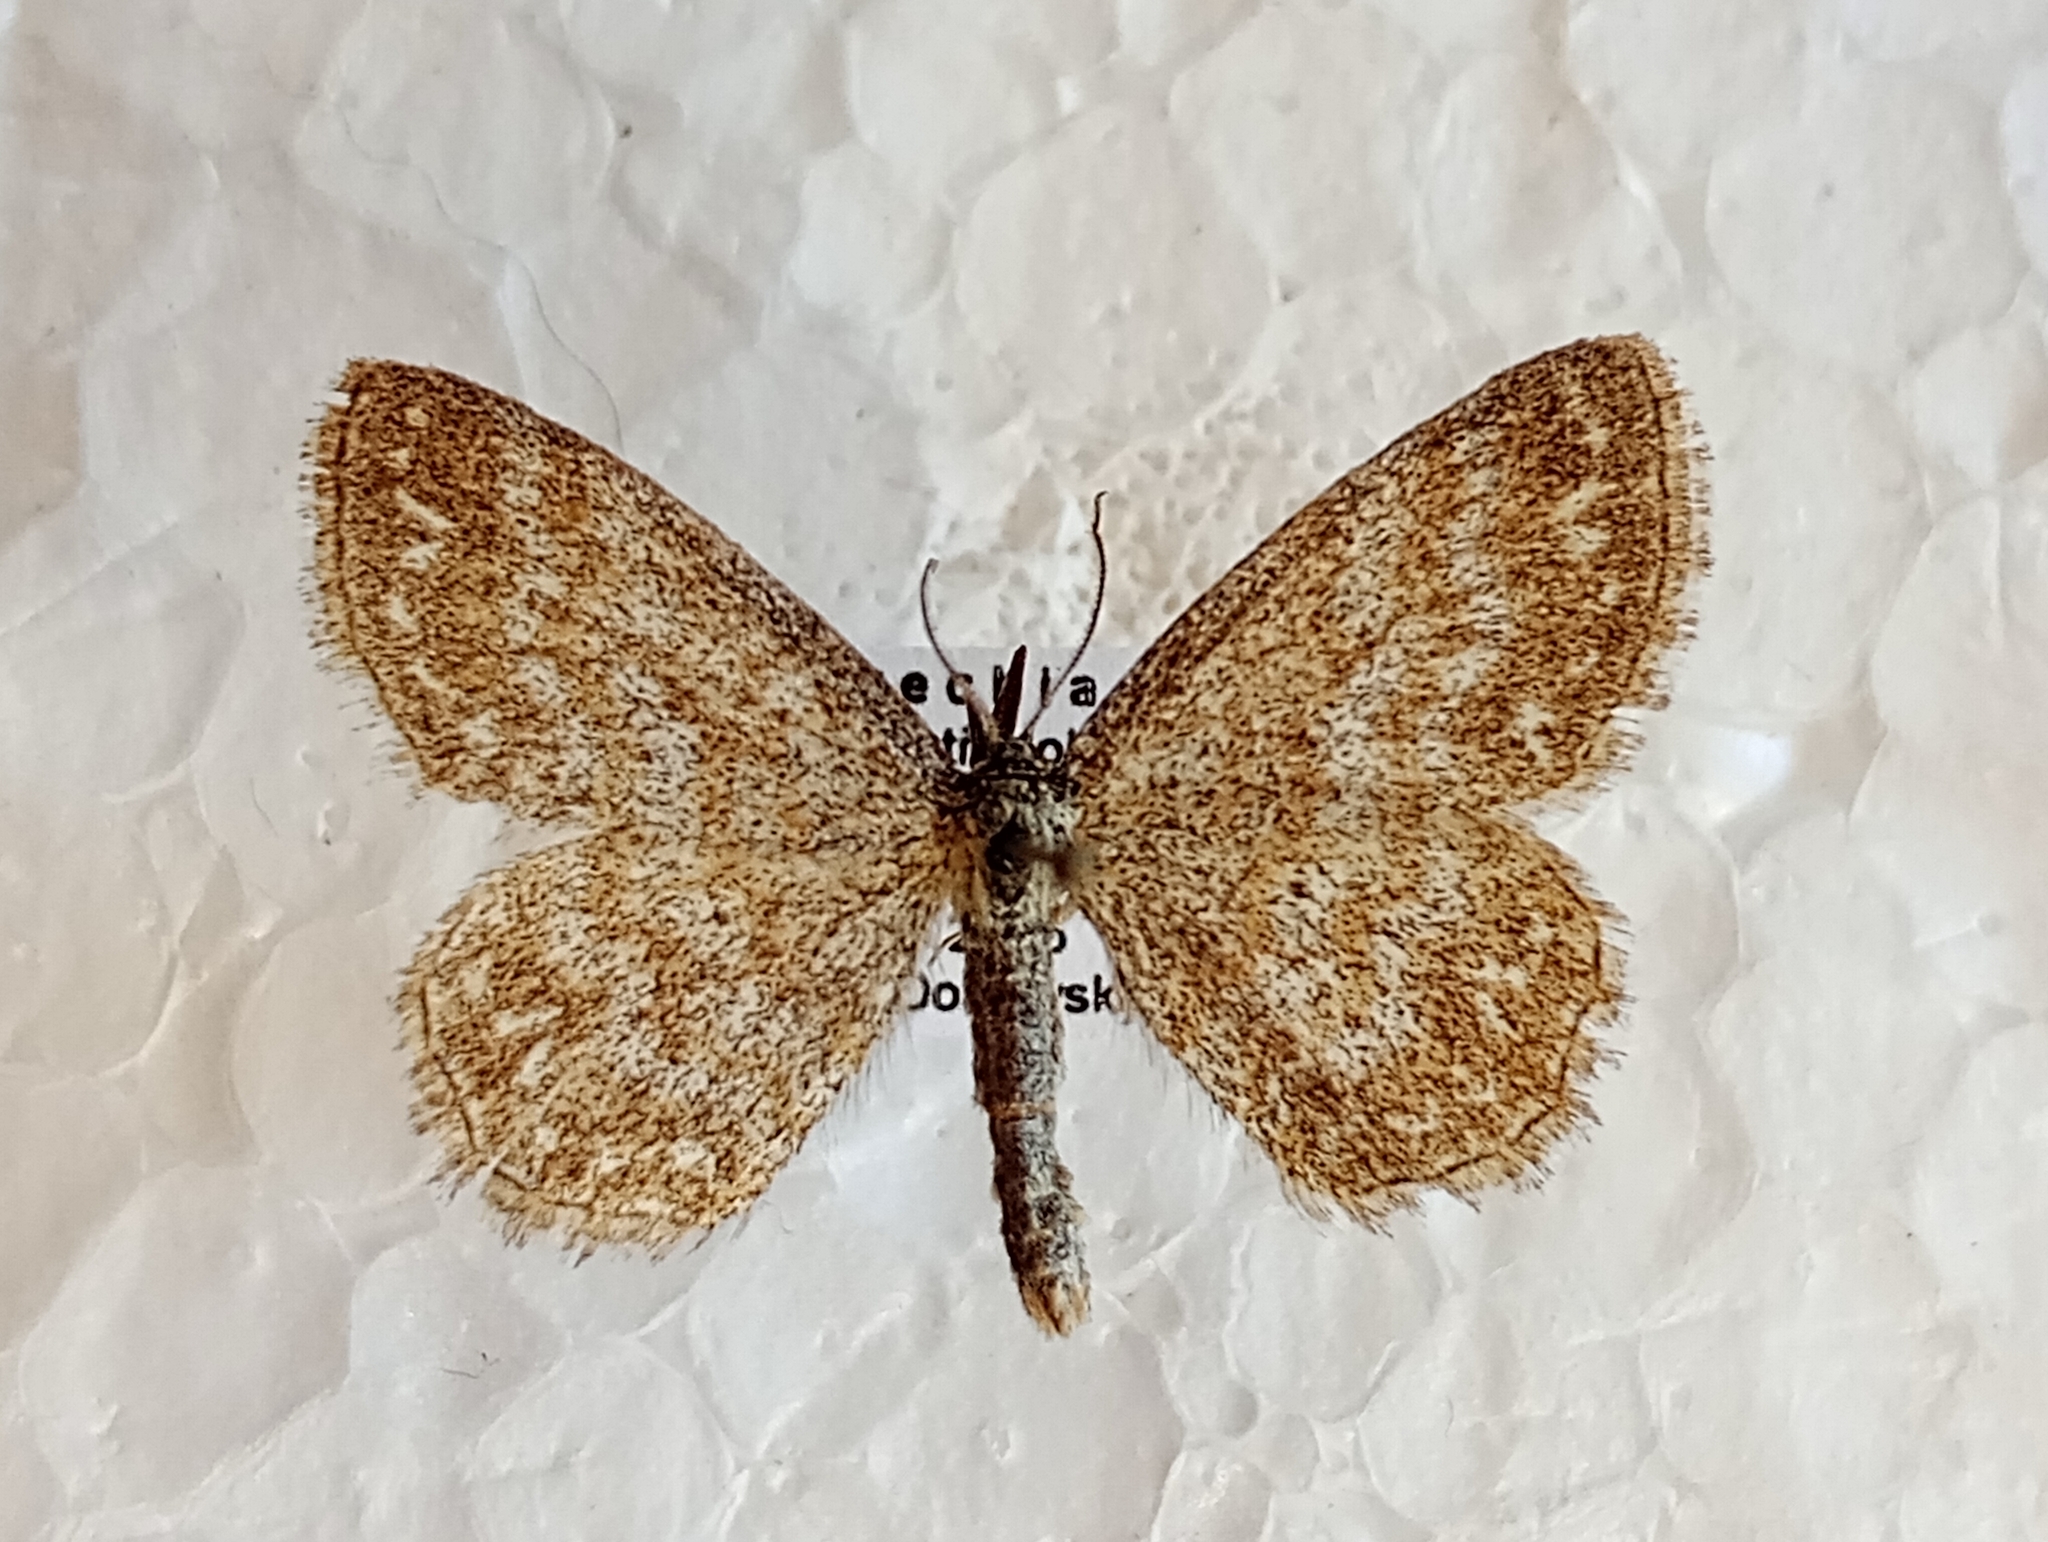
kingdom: Animalia
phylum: Arthropoda
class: Insecta
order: Lepidoptera
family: Geometridae
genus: Scopula
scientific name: Scopula immorata
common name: Lewes wave
